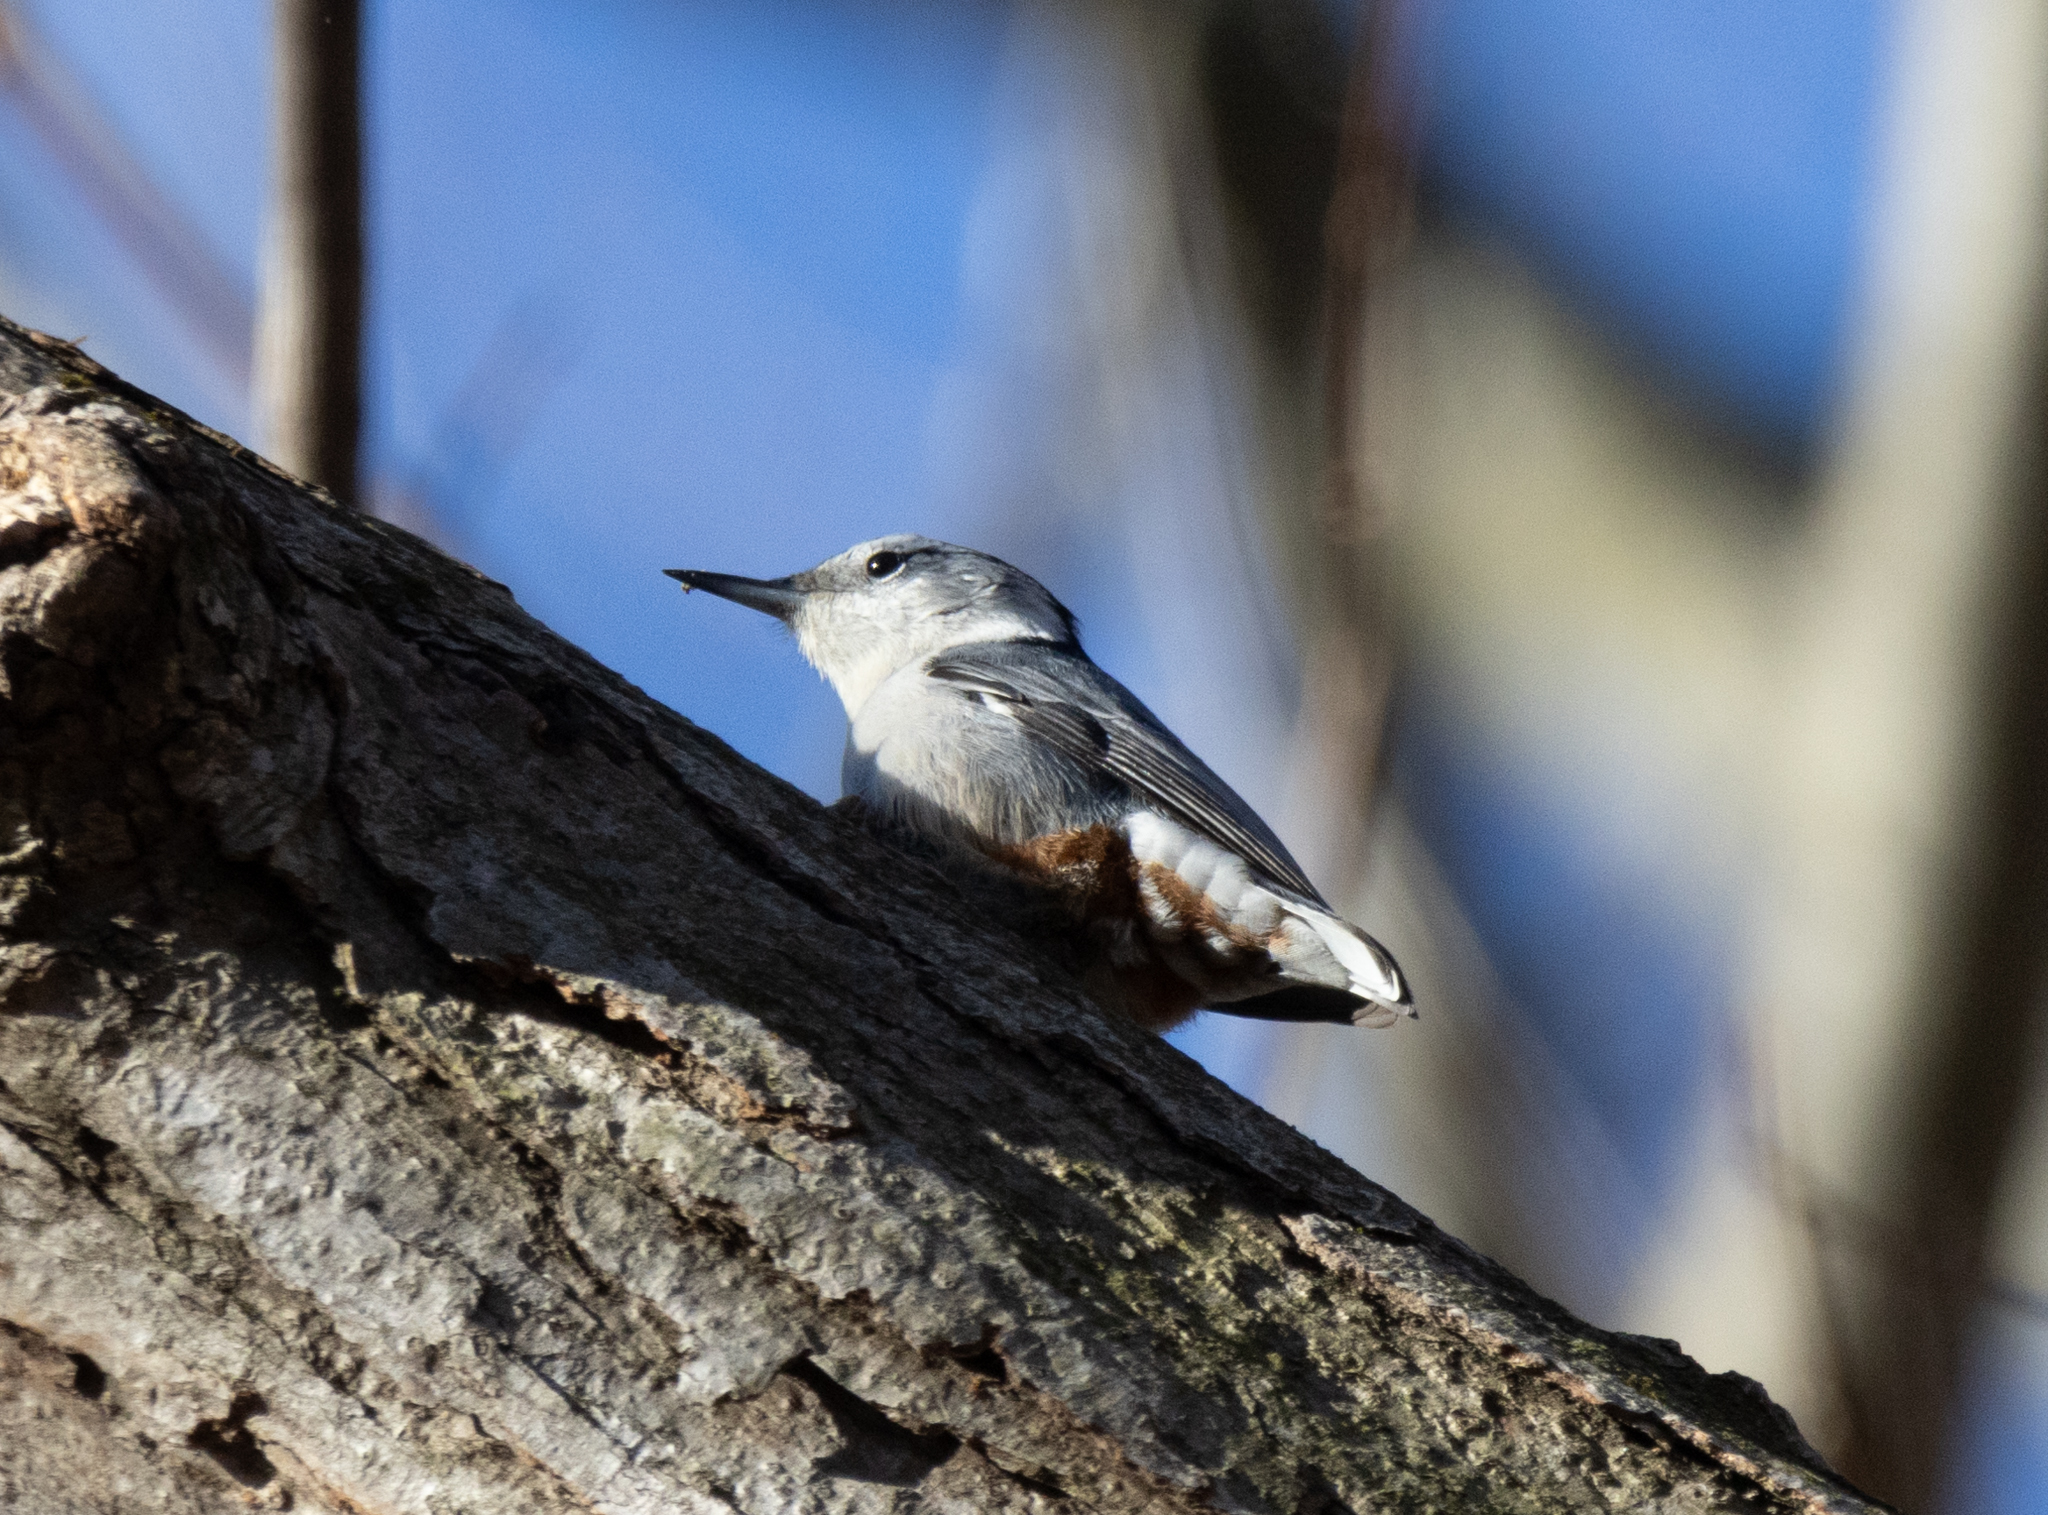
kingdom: Animalia
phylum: Chordata
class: Aves
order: Passeriformes
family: Sittidae
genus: Sitta
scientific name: Sitta carolinensis
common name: White-breasted nuthatch
